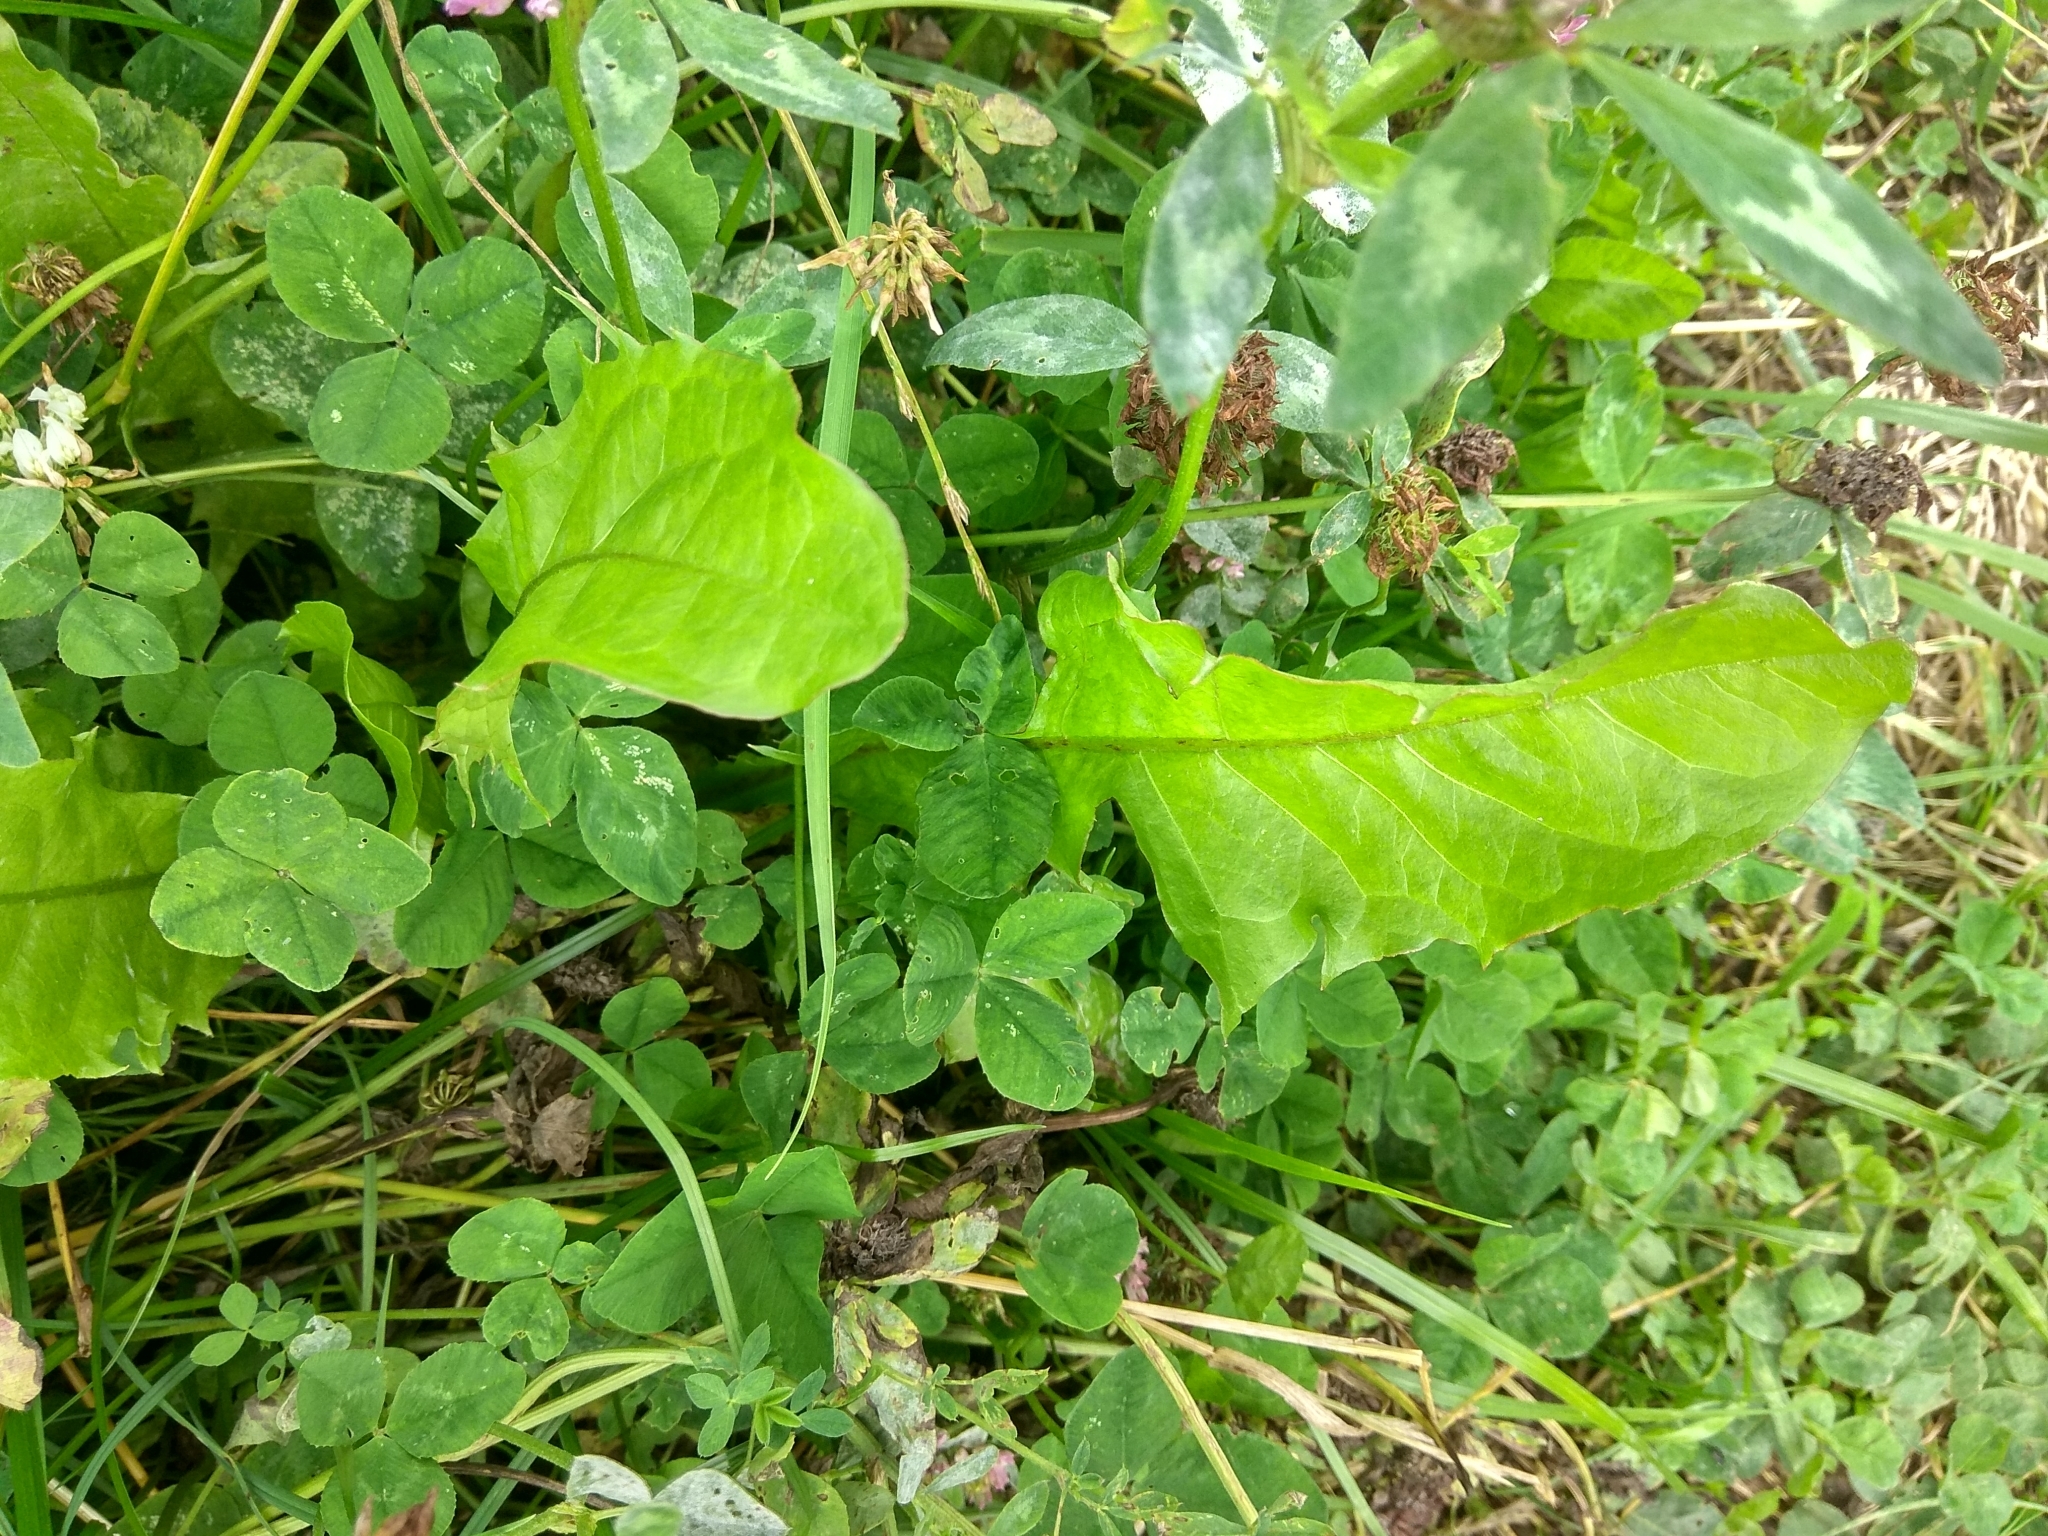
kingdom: Plantae
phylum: Tracheophyta
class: Magnoliopsida
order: Asterales
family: Asteraceae
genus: Taraxacum
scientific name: Taraxacum officinale
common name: Common dandelion
